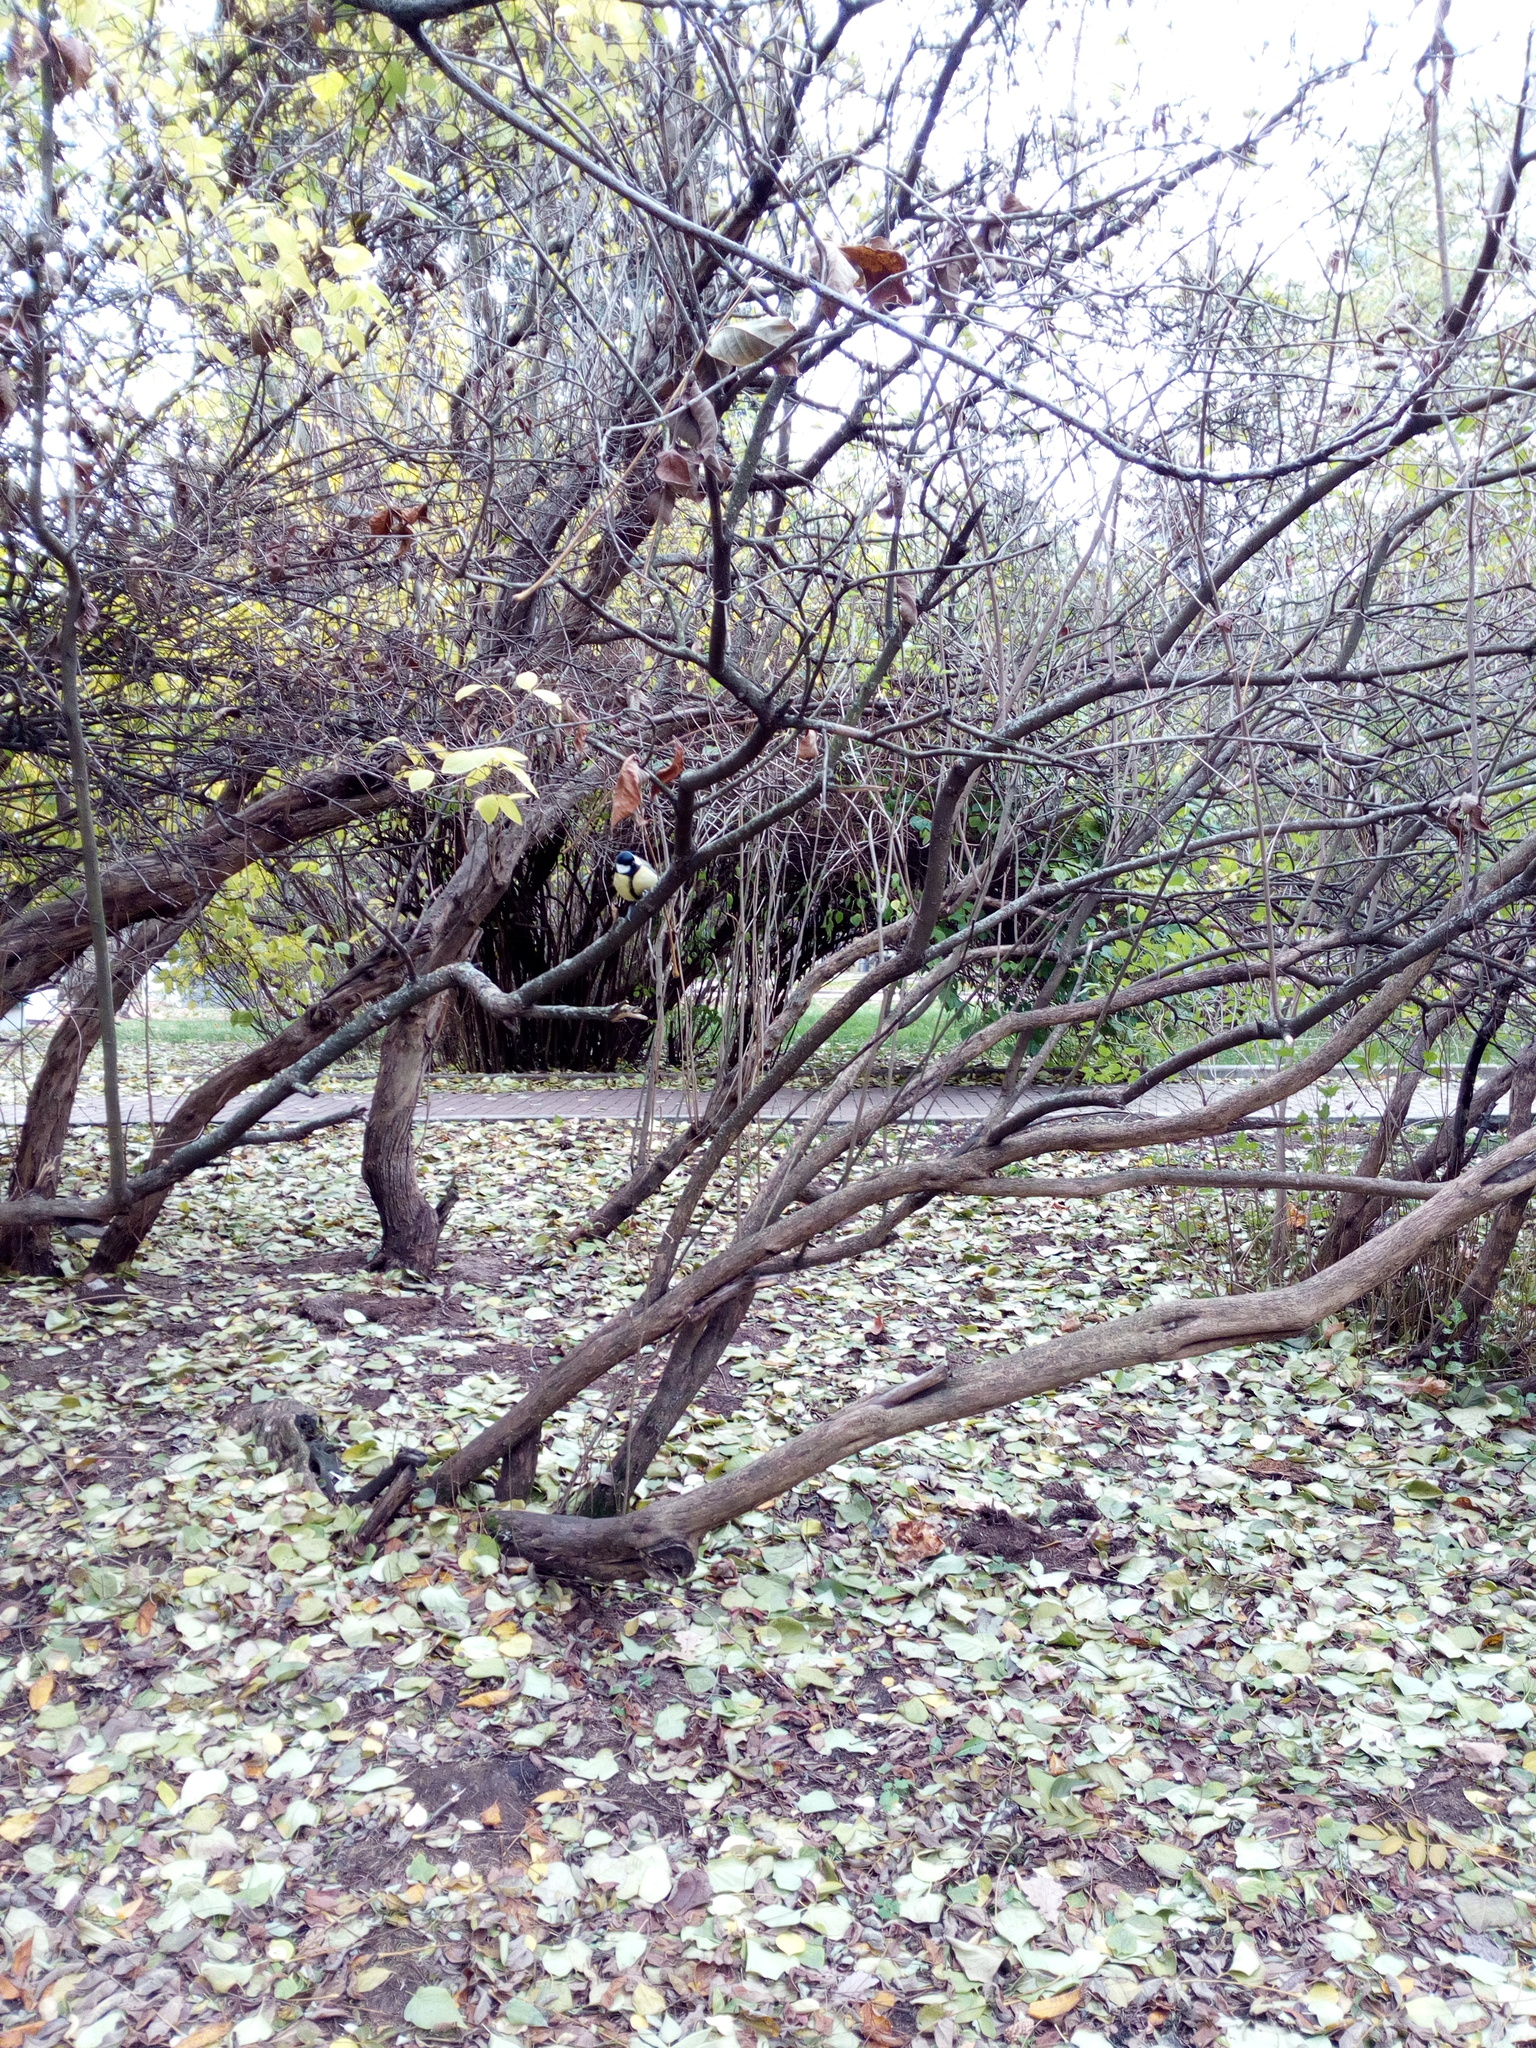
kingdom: Animalia
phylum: Chordata
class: Aves
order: Passeriformes
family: Paridae
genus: Parus
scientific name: Parus major
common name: Great tit
